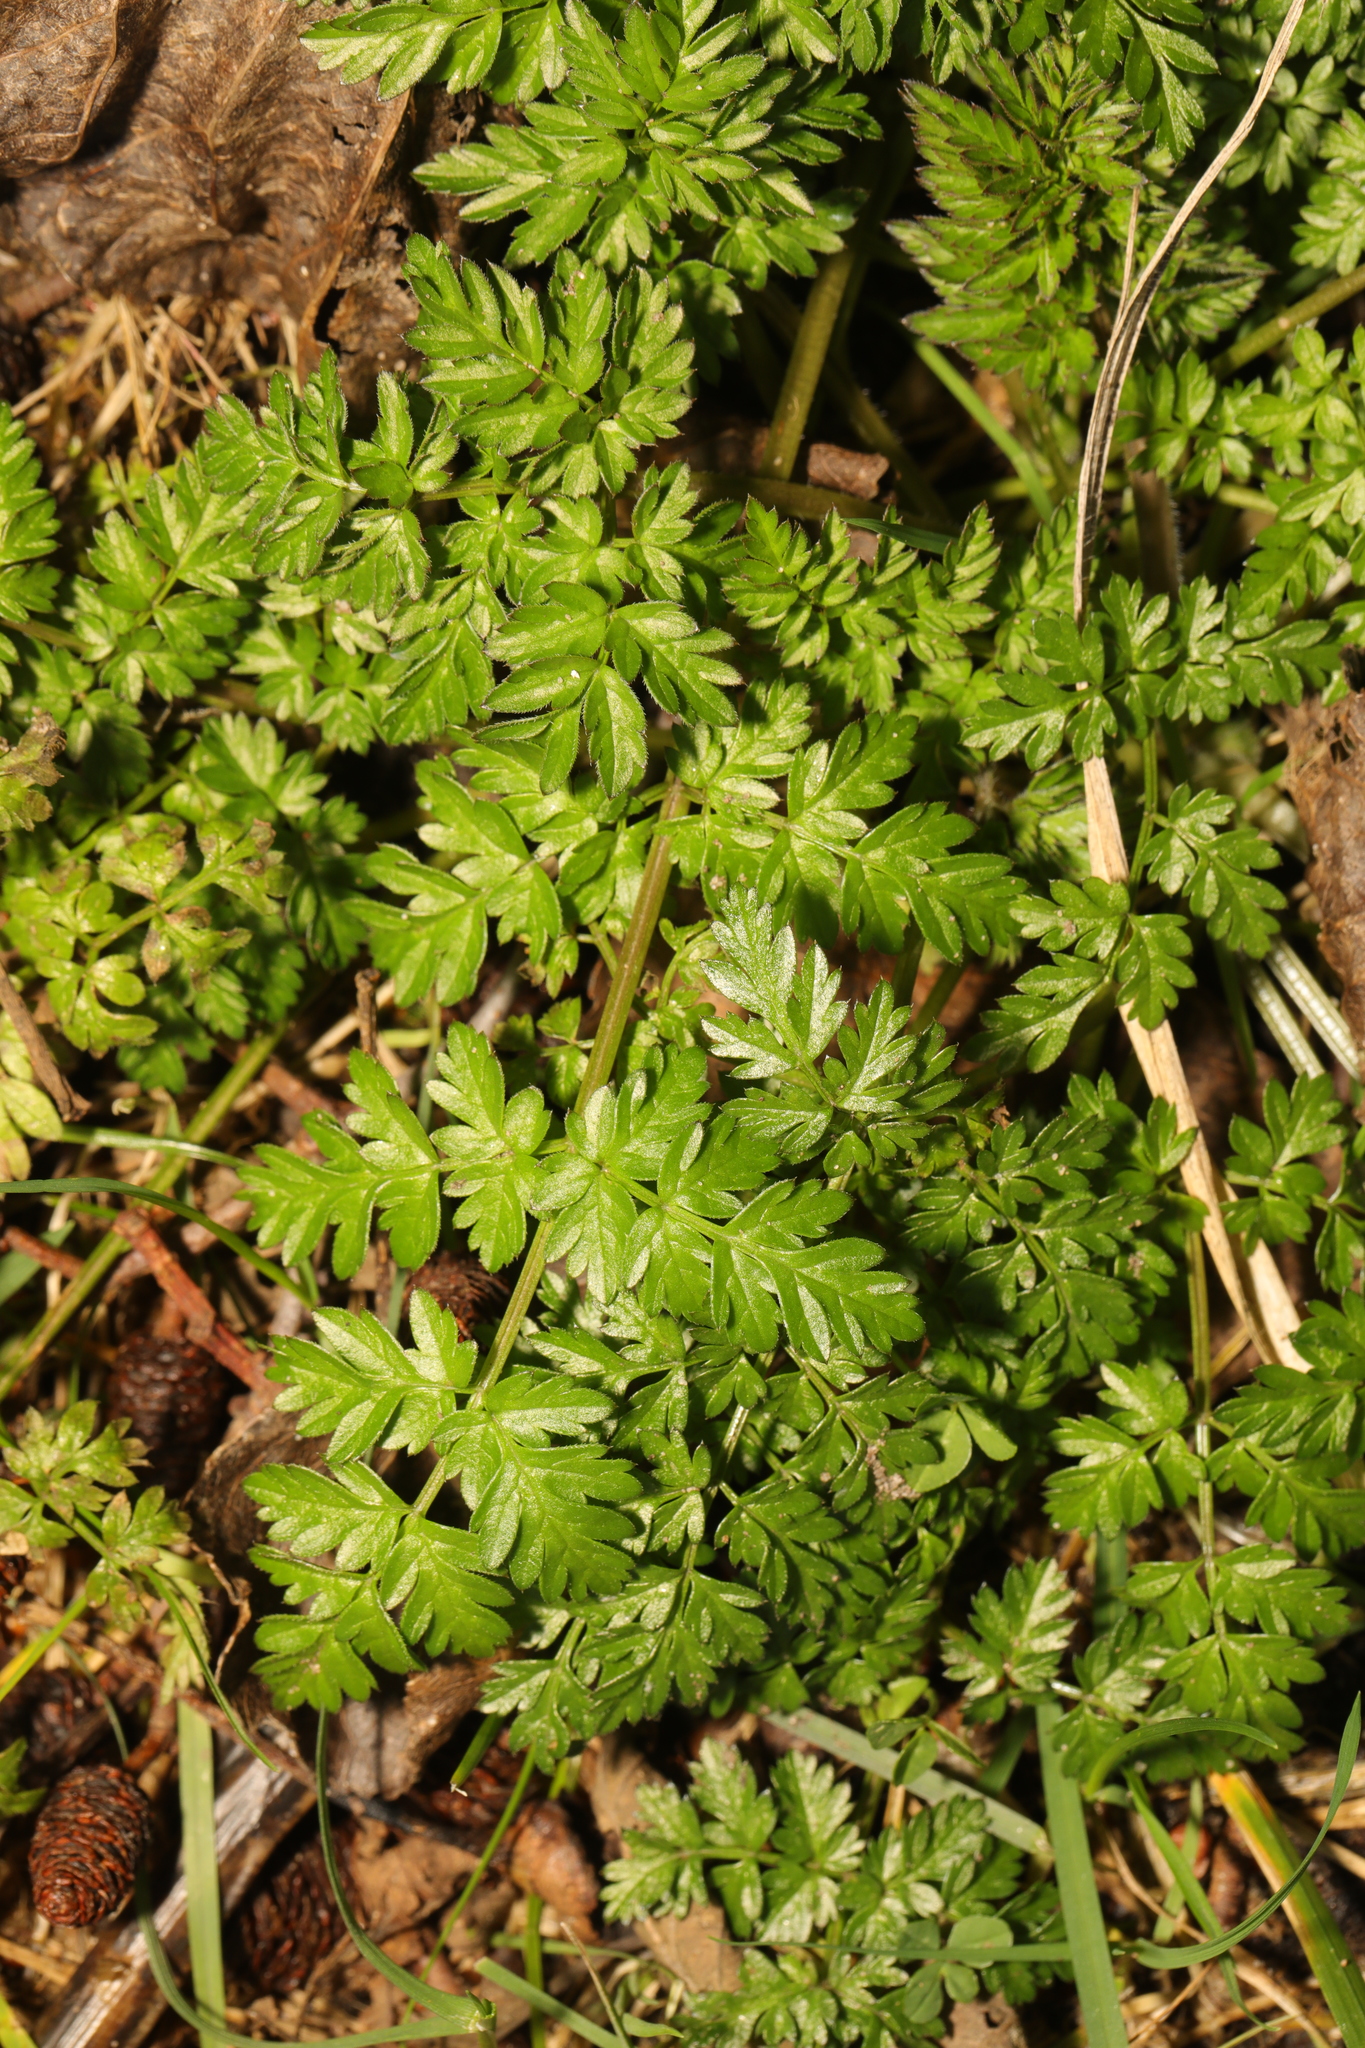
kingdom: Plantae
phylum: Tracheophyta
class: Magnoliopsida
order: Apiales
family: Apiaceae
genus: Anthriscus
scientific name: Anthriscus sylvestris
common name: Cow parsley
